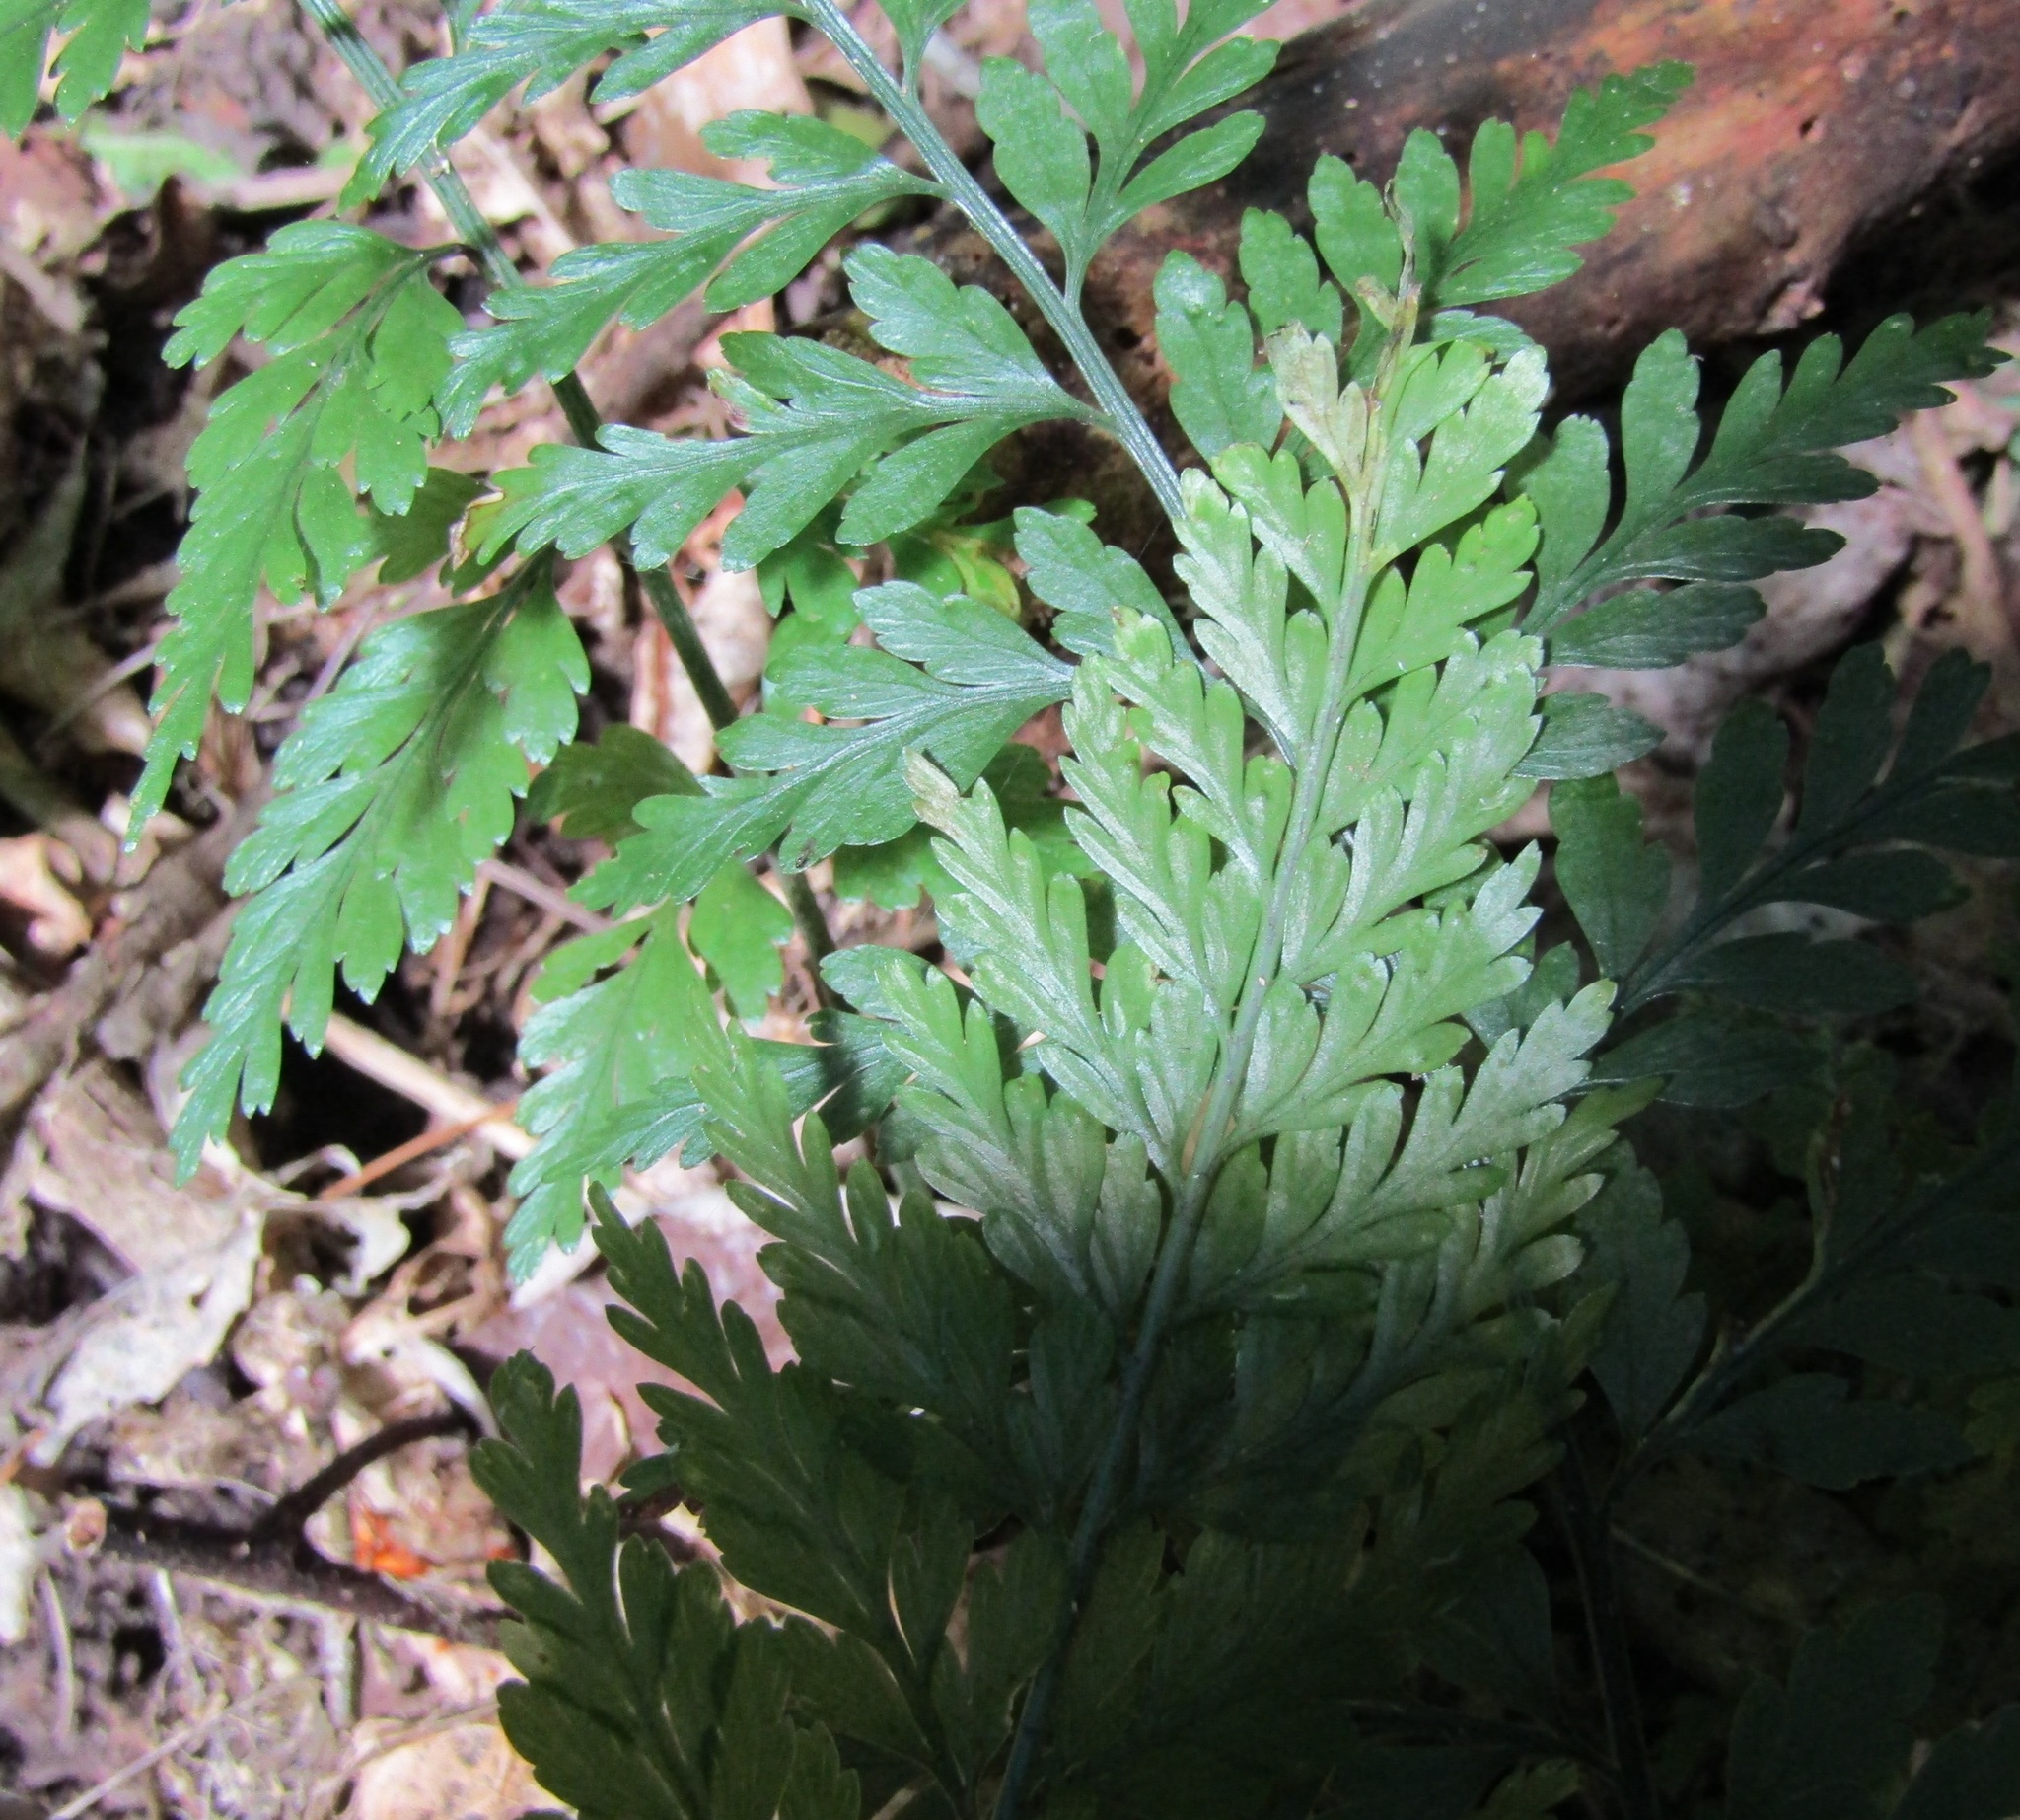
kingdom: Plantae
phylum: Tracheophyta
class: Polypodiopsida
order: Polypodiales
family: Aspleniaceae
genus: Asplenium
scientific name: Asplenium
